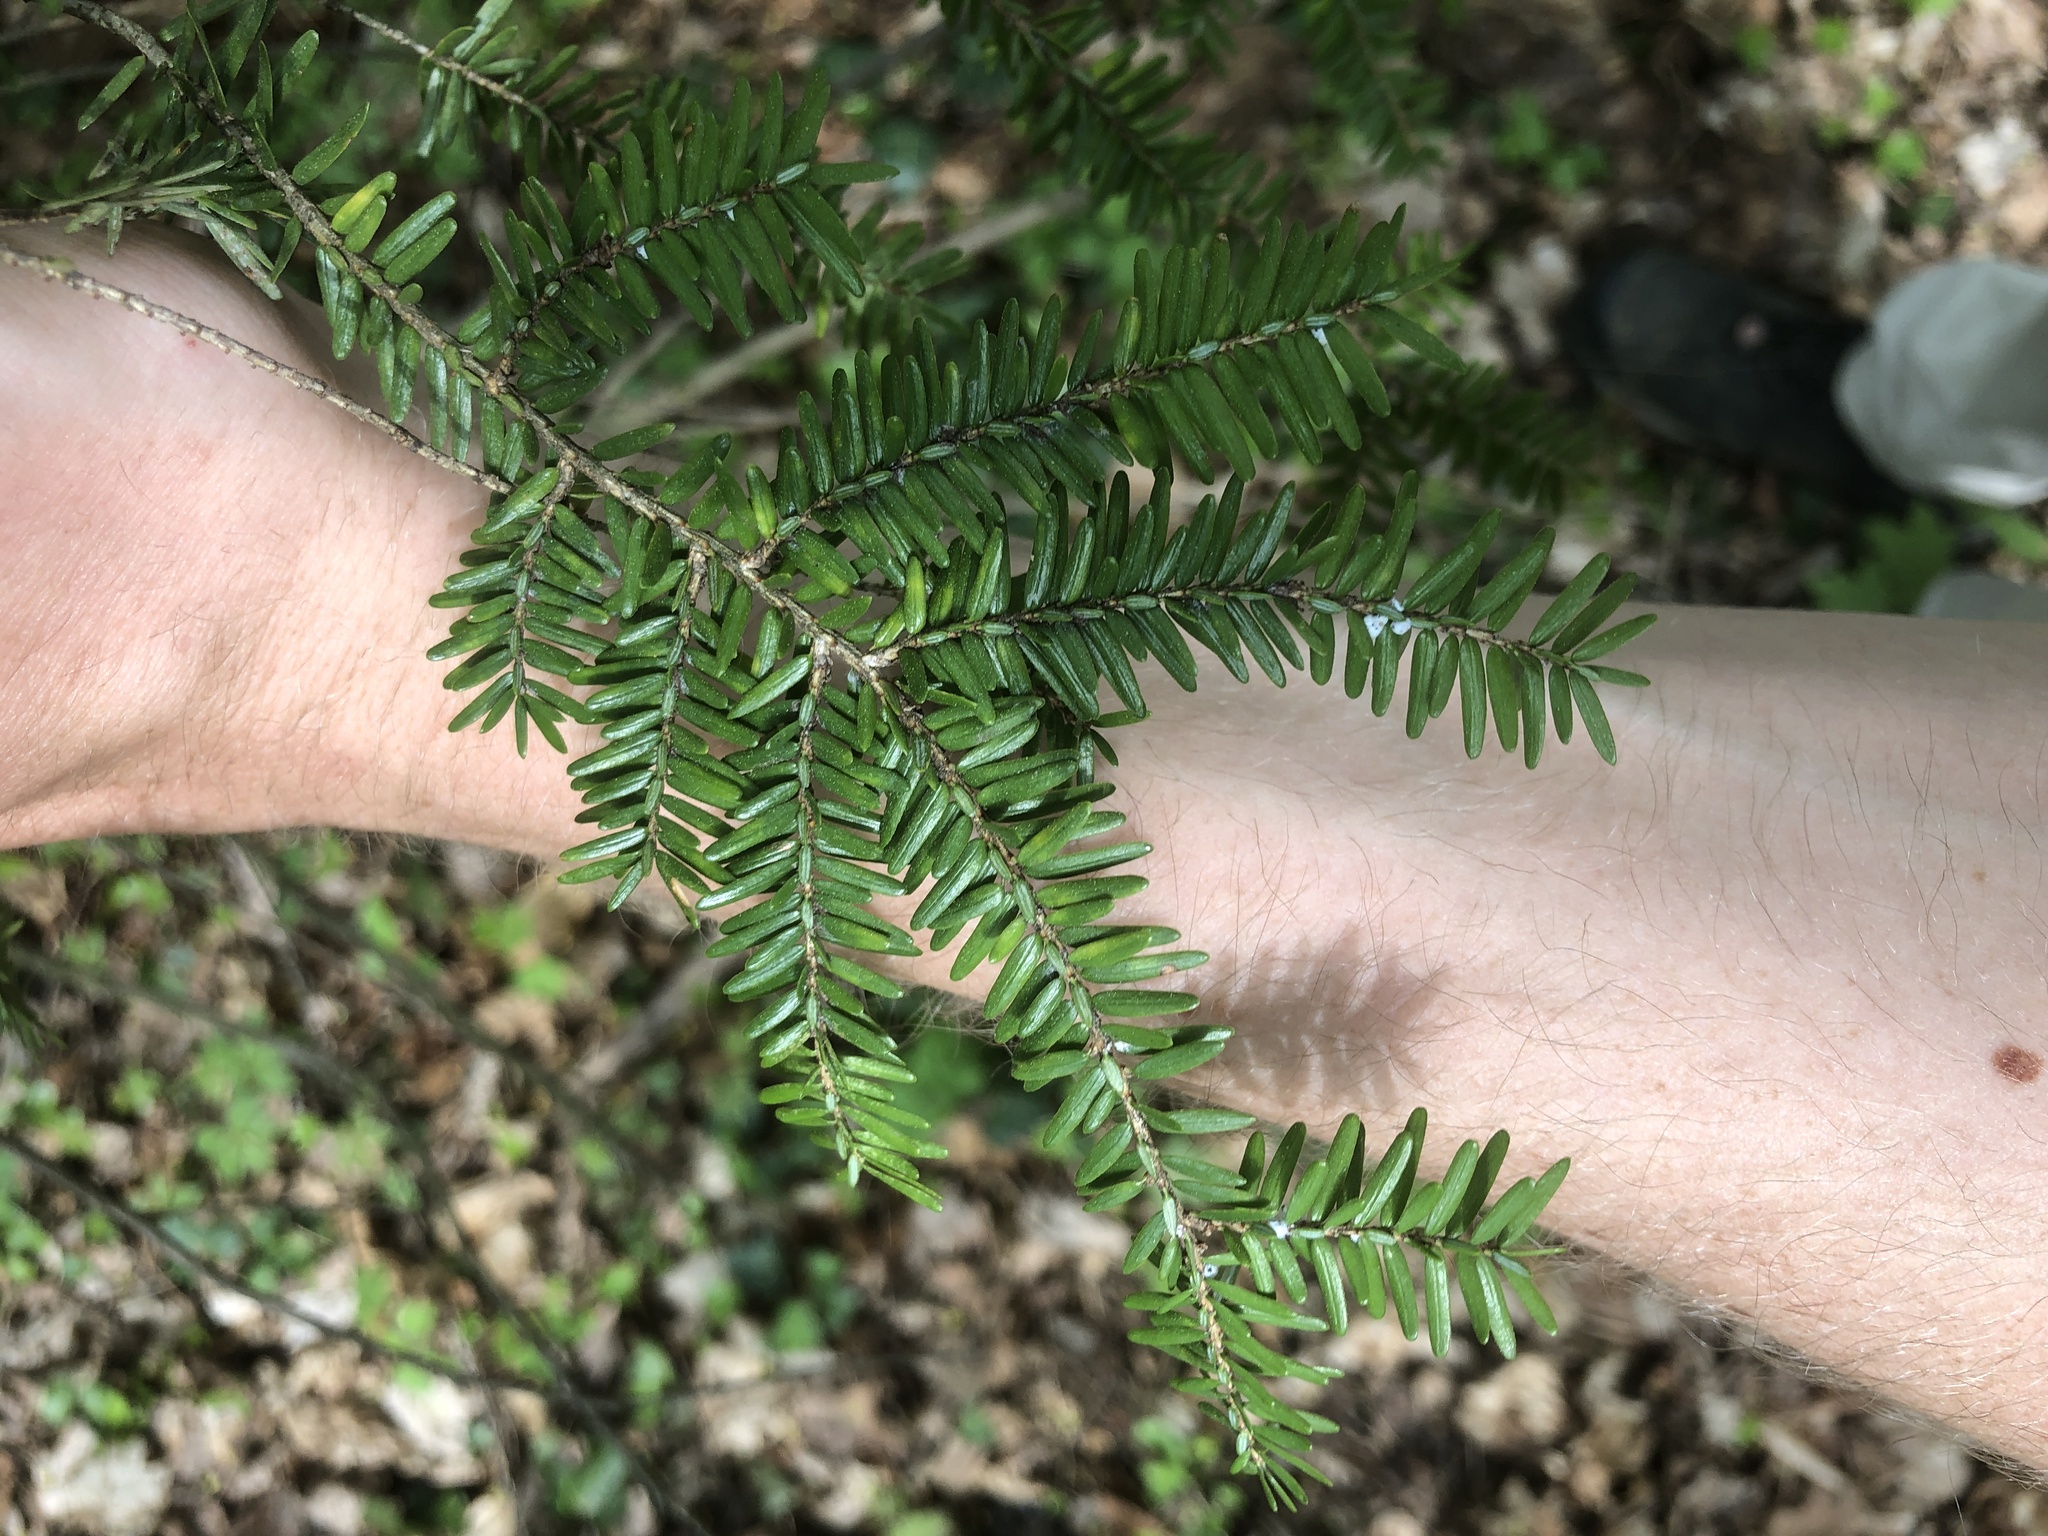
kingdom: Plantae
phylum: Tracheophyta
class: Pinopsida
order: Pinales
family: Pinaceae
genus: Tsuga
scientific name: Tsuga canadensis
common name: Eastern hemlock
